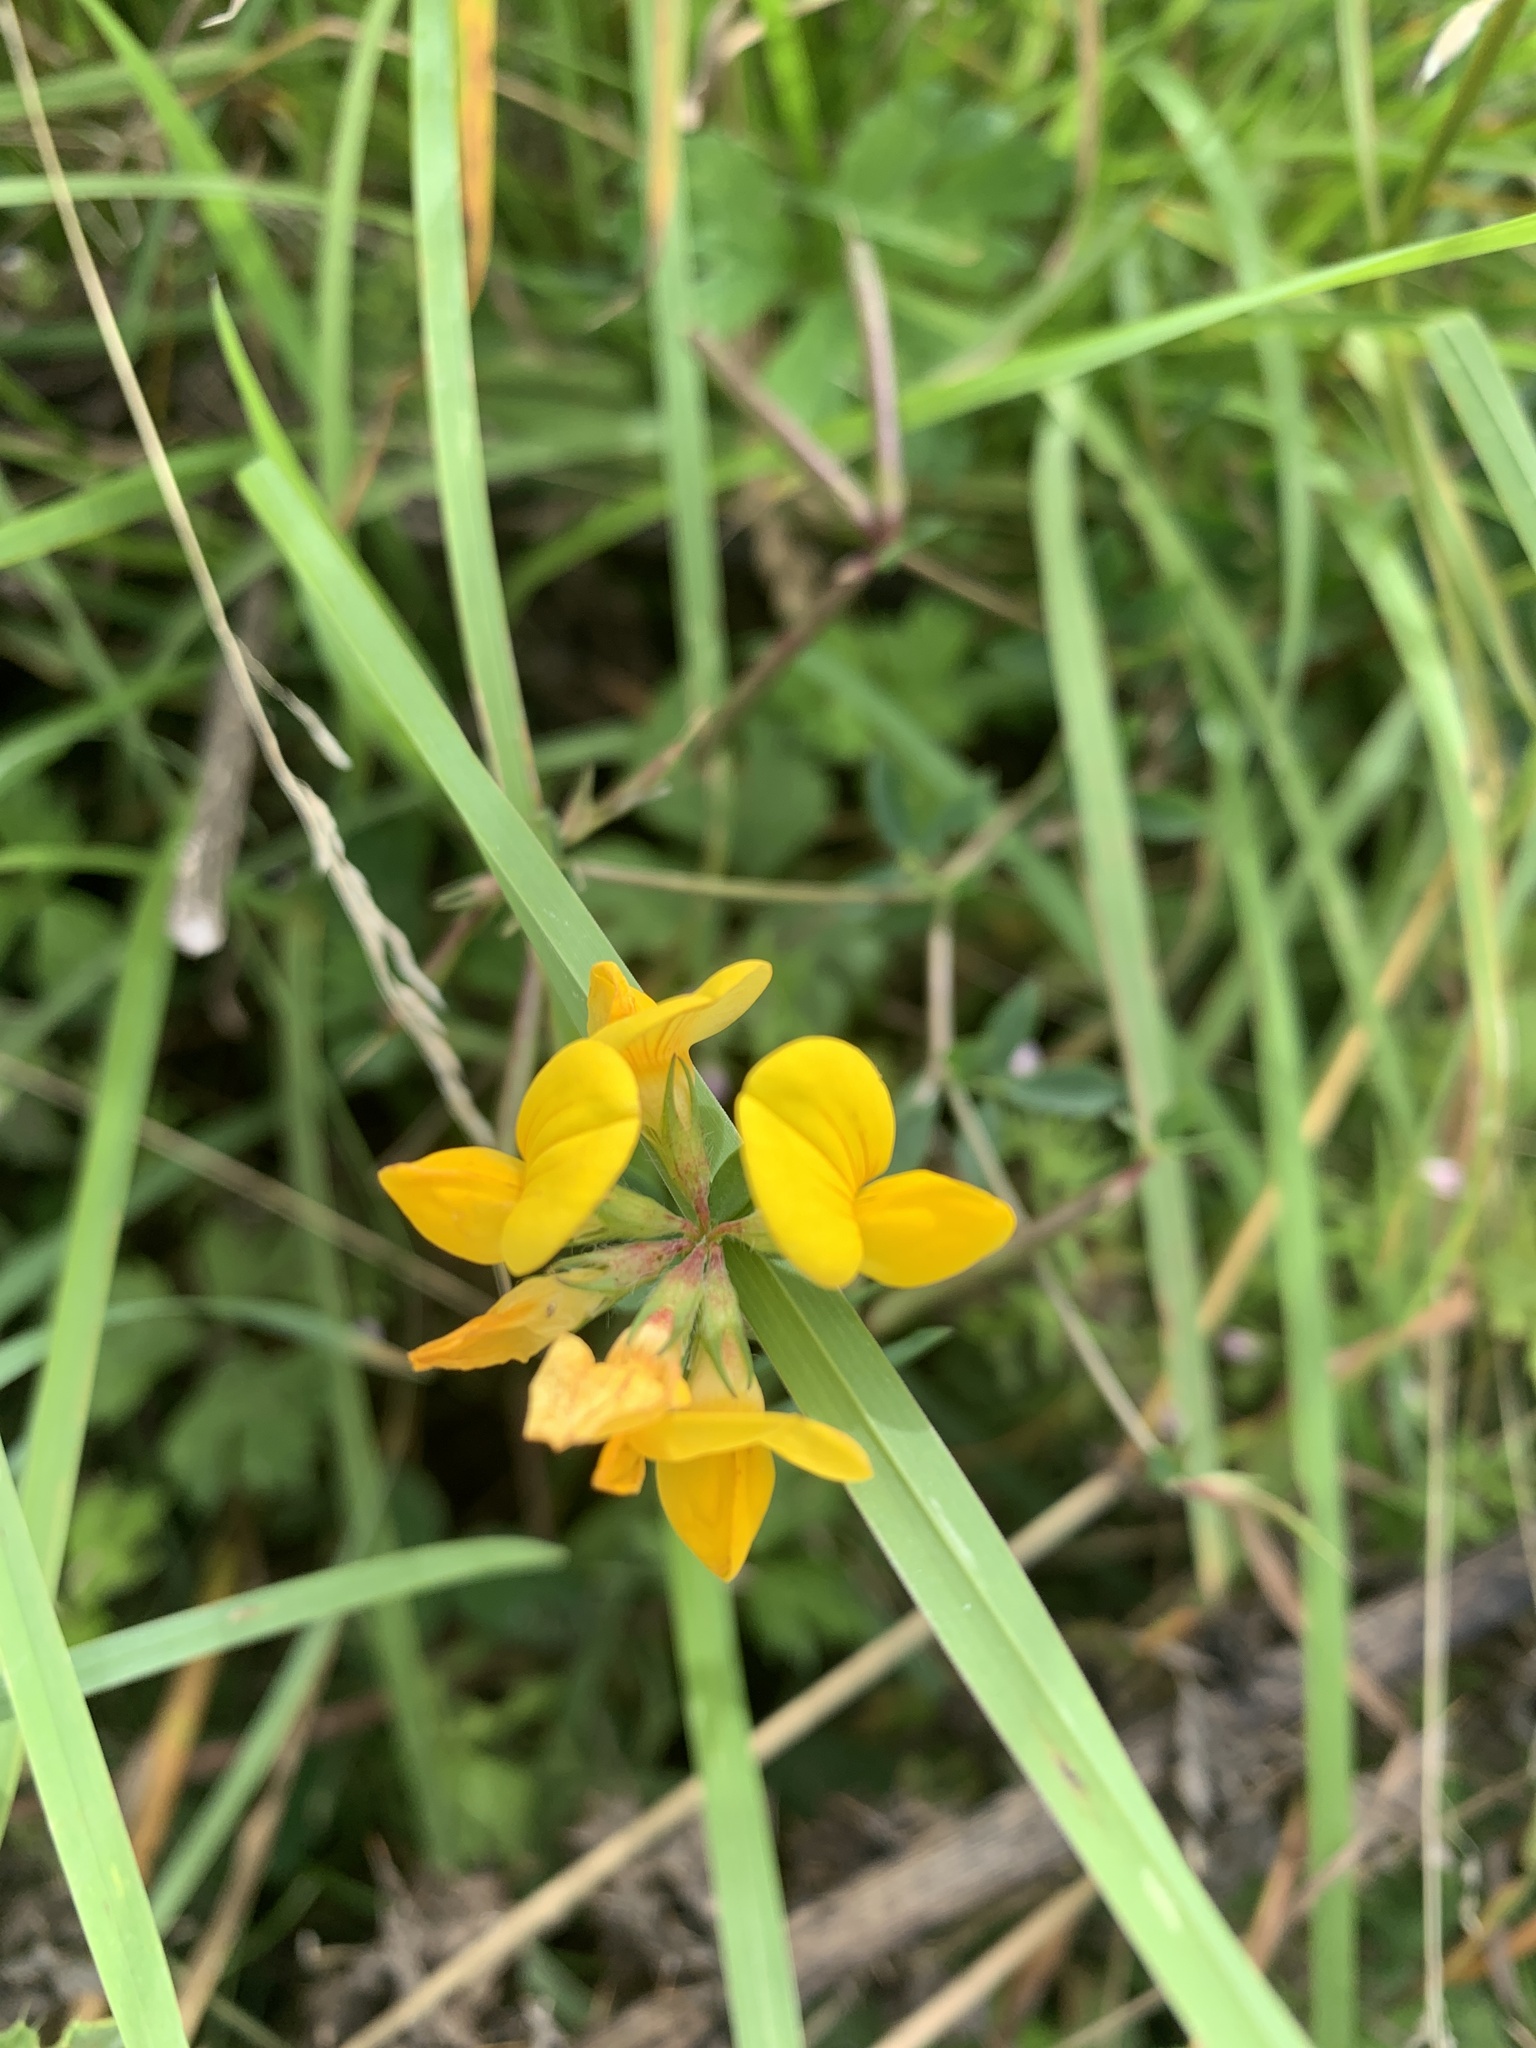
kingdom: Plantae
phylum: Tracheophyta
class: Magnoliopsida
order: Fabales
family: Fabaceae
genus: Lotus
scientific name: Lotus corniculatus
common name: Common bird's-foot-trefoil
